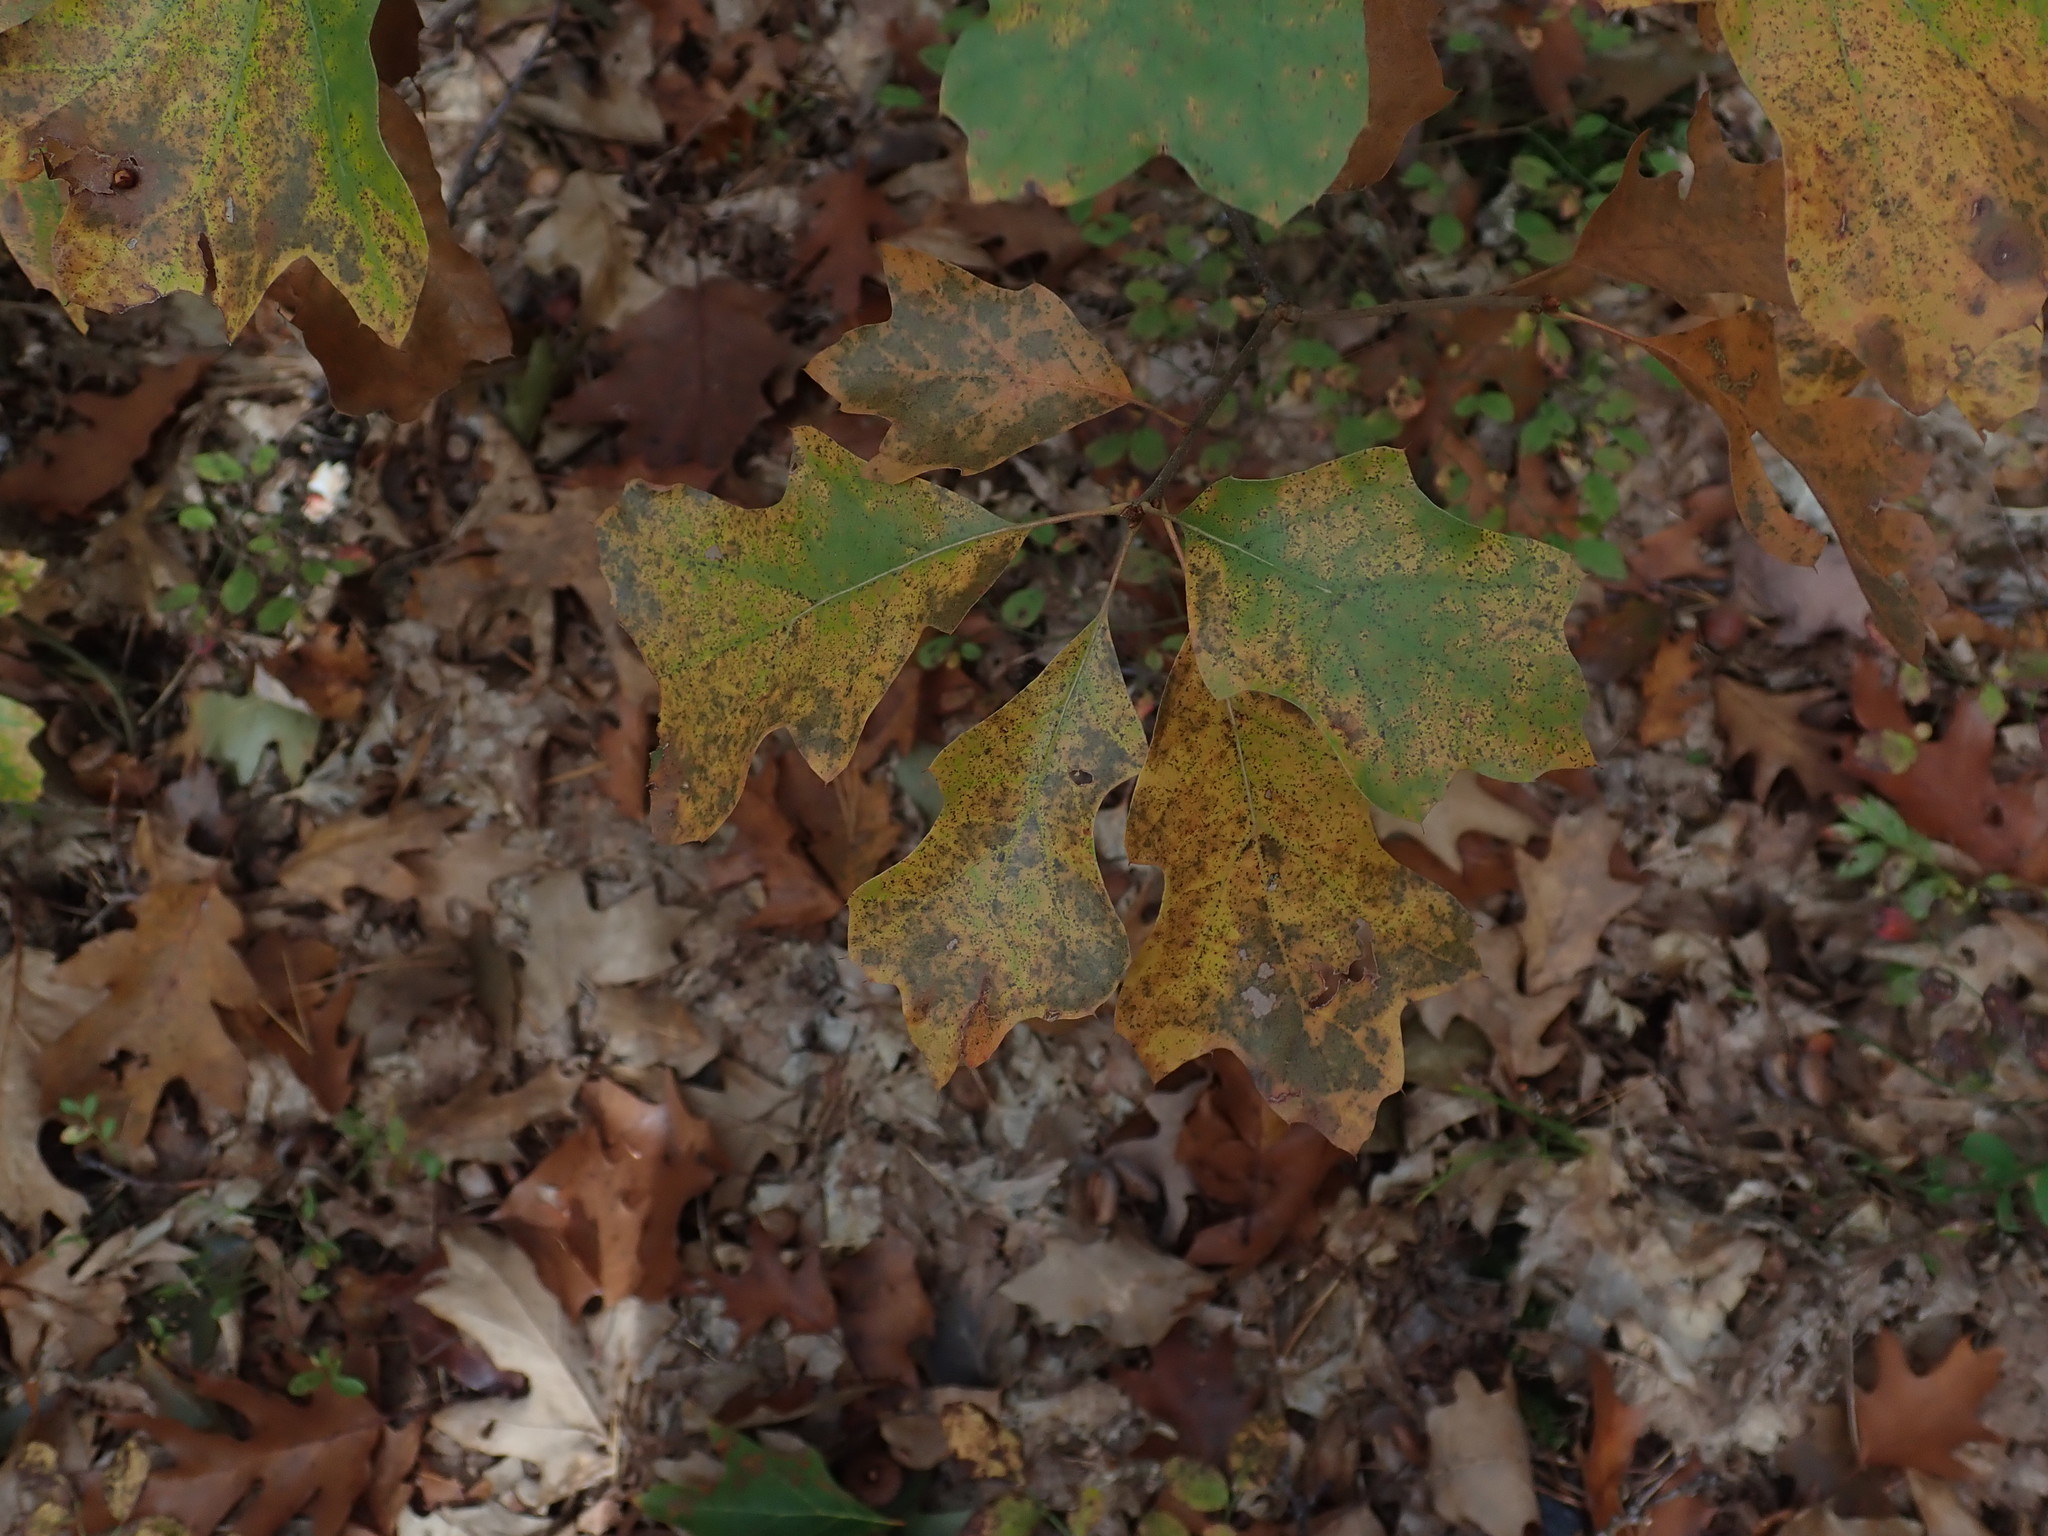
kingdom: Plantae
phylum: Tracheophyta
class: Magnoliopsida
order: Fagales
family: Fagaceae
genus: Quercus
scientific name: Quercus ilicifolia
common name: Bear oak
